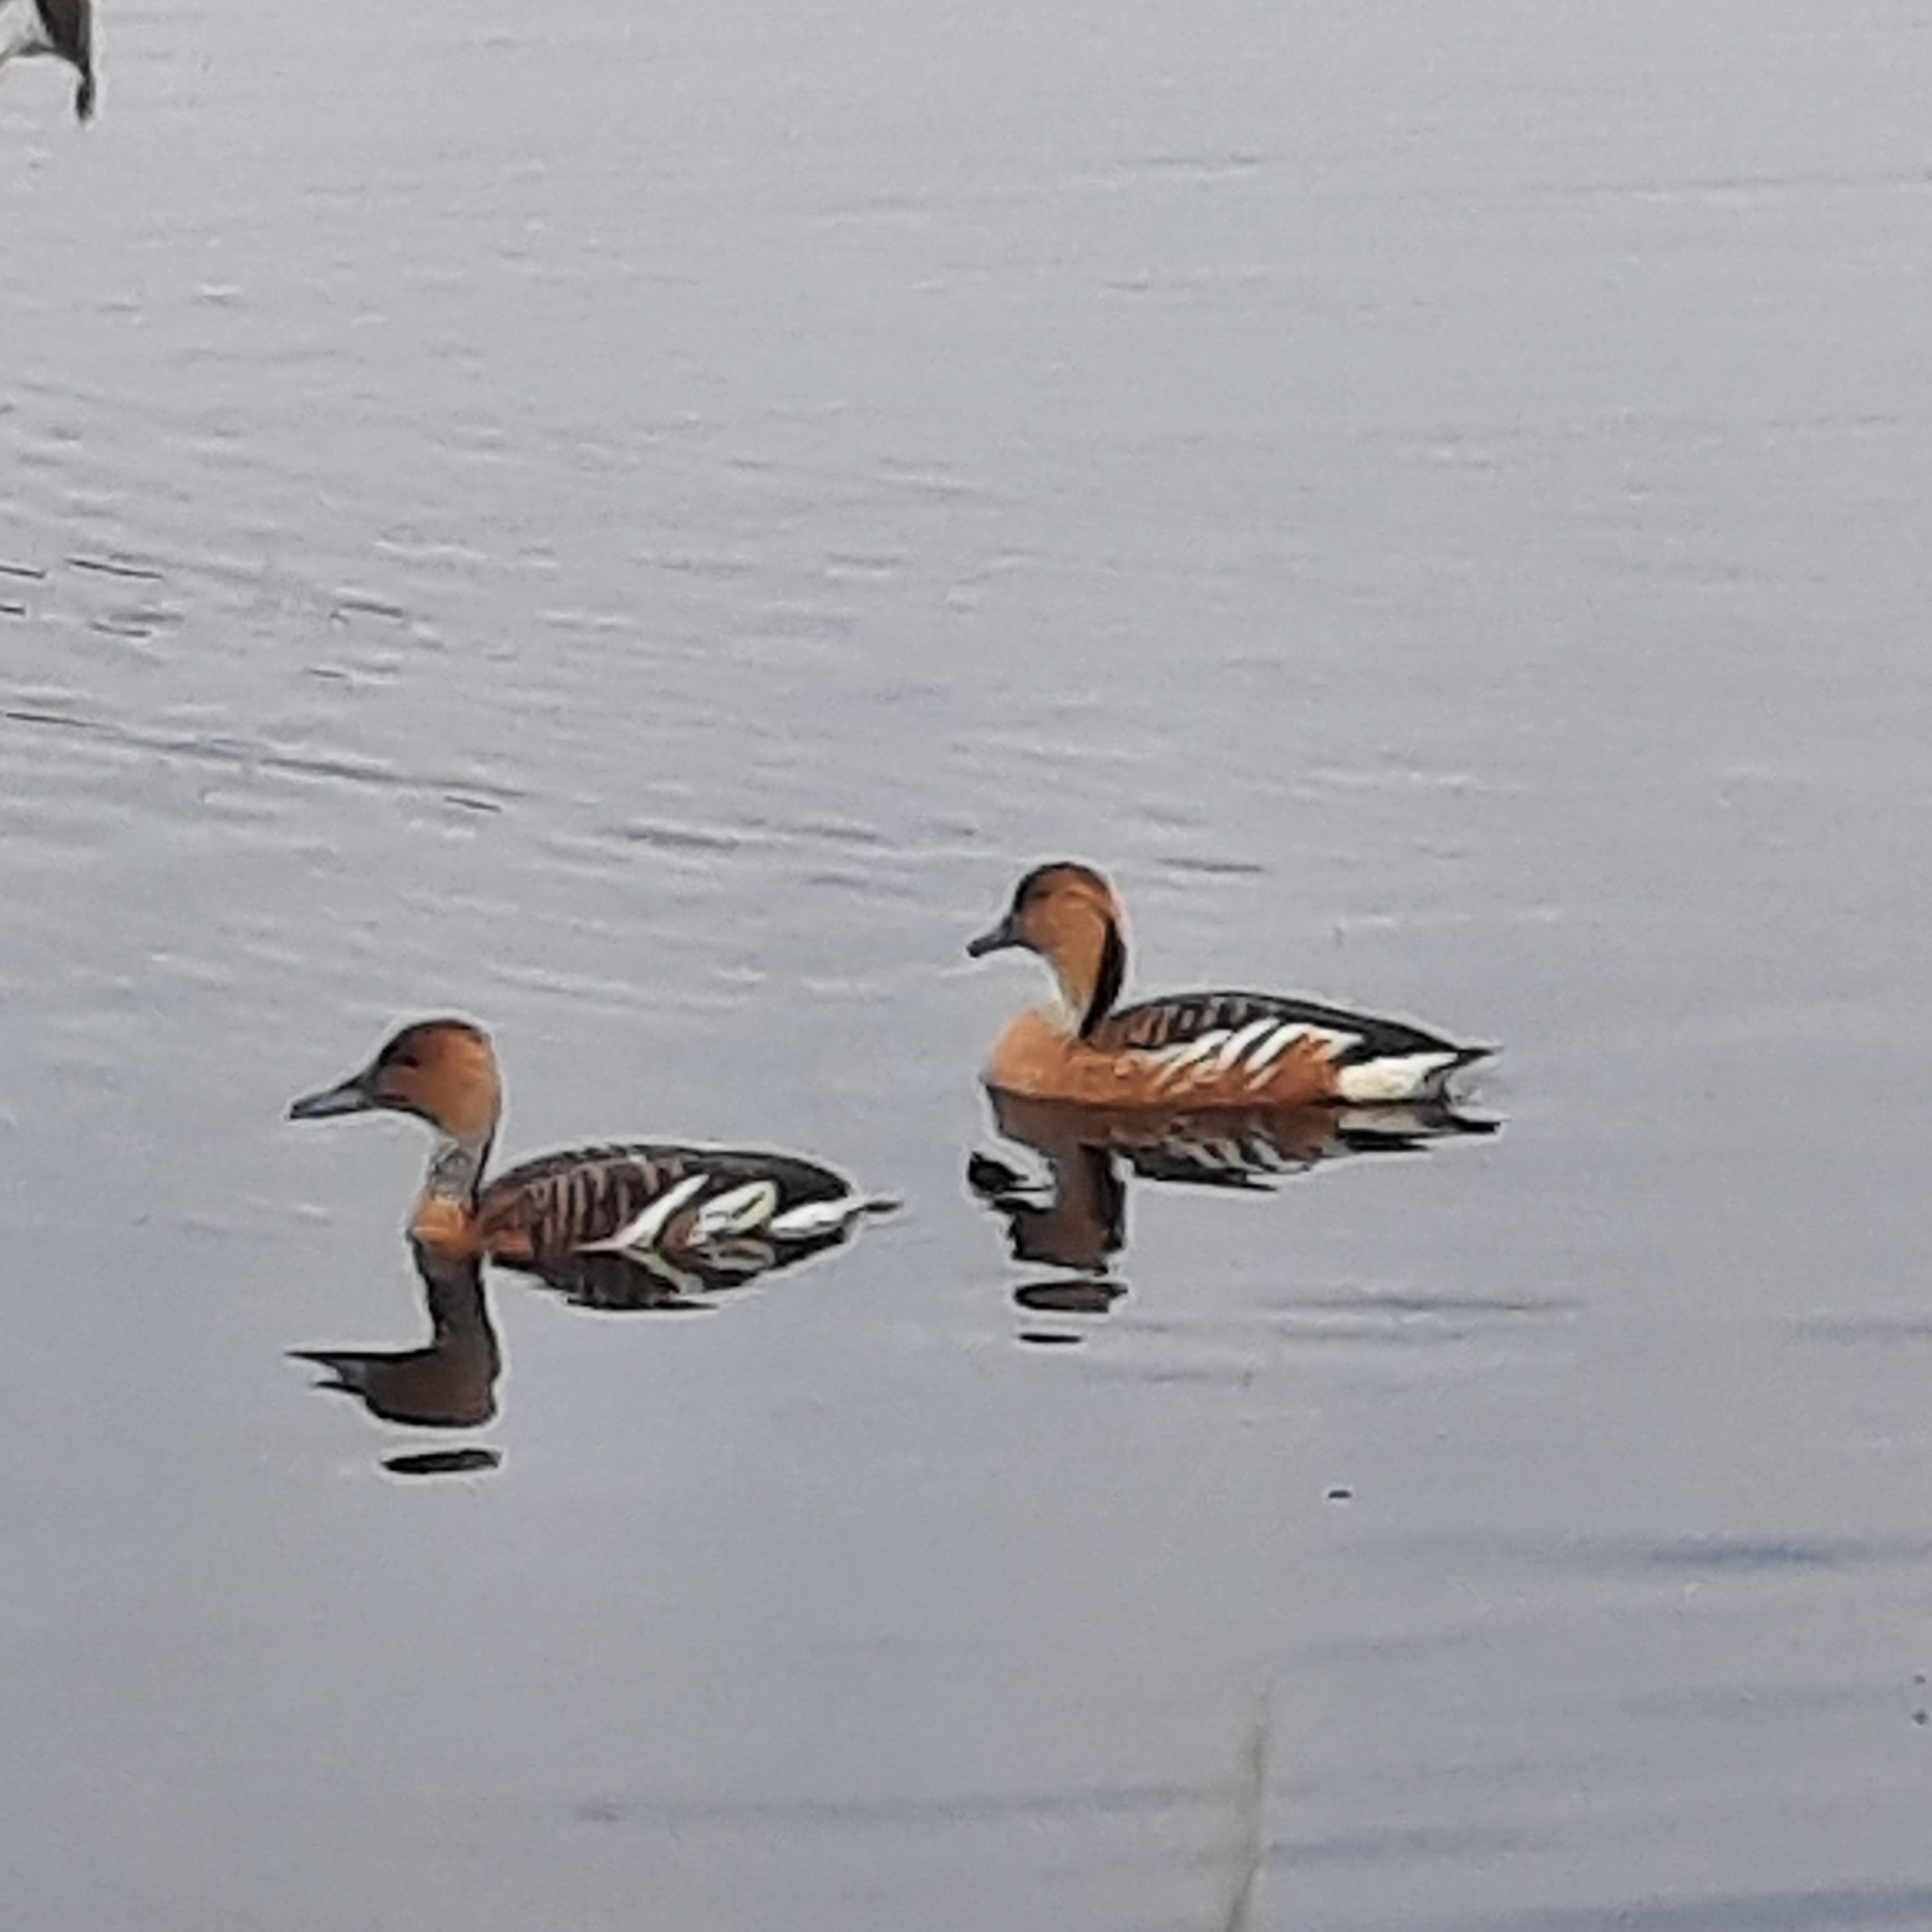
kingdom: Animalia
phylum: Chordata
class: Aves
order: Anseriformes
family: Anatidae
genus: Dendrocygna
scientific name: Dendrocygna bicolor
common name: Fulvous whistling duck
